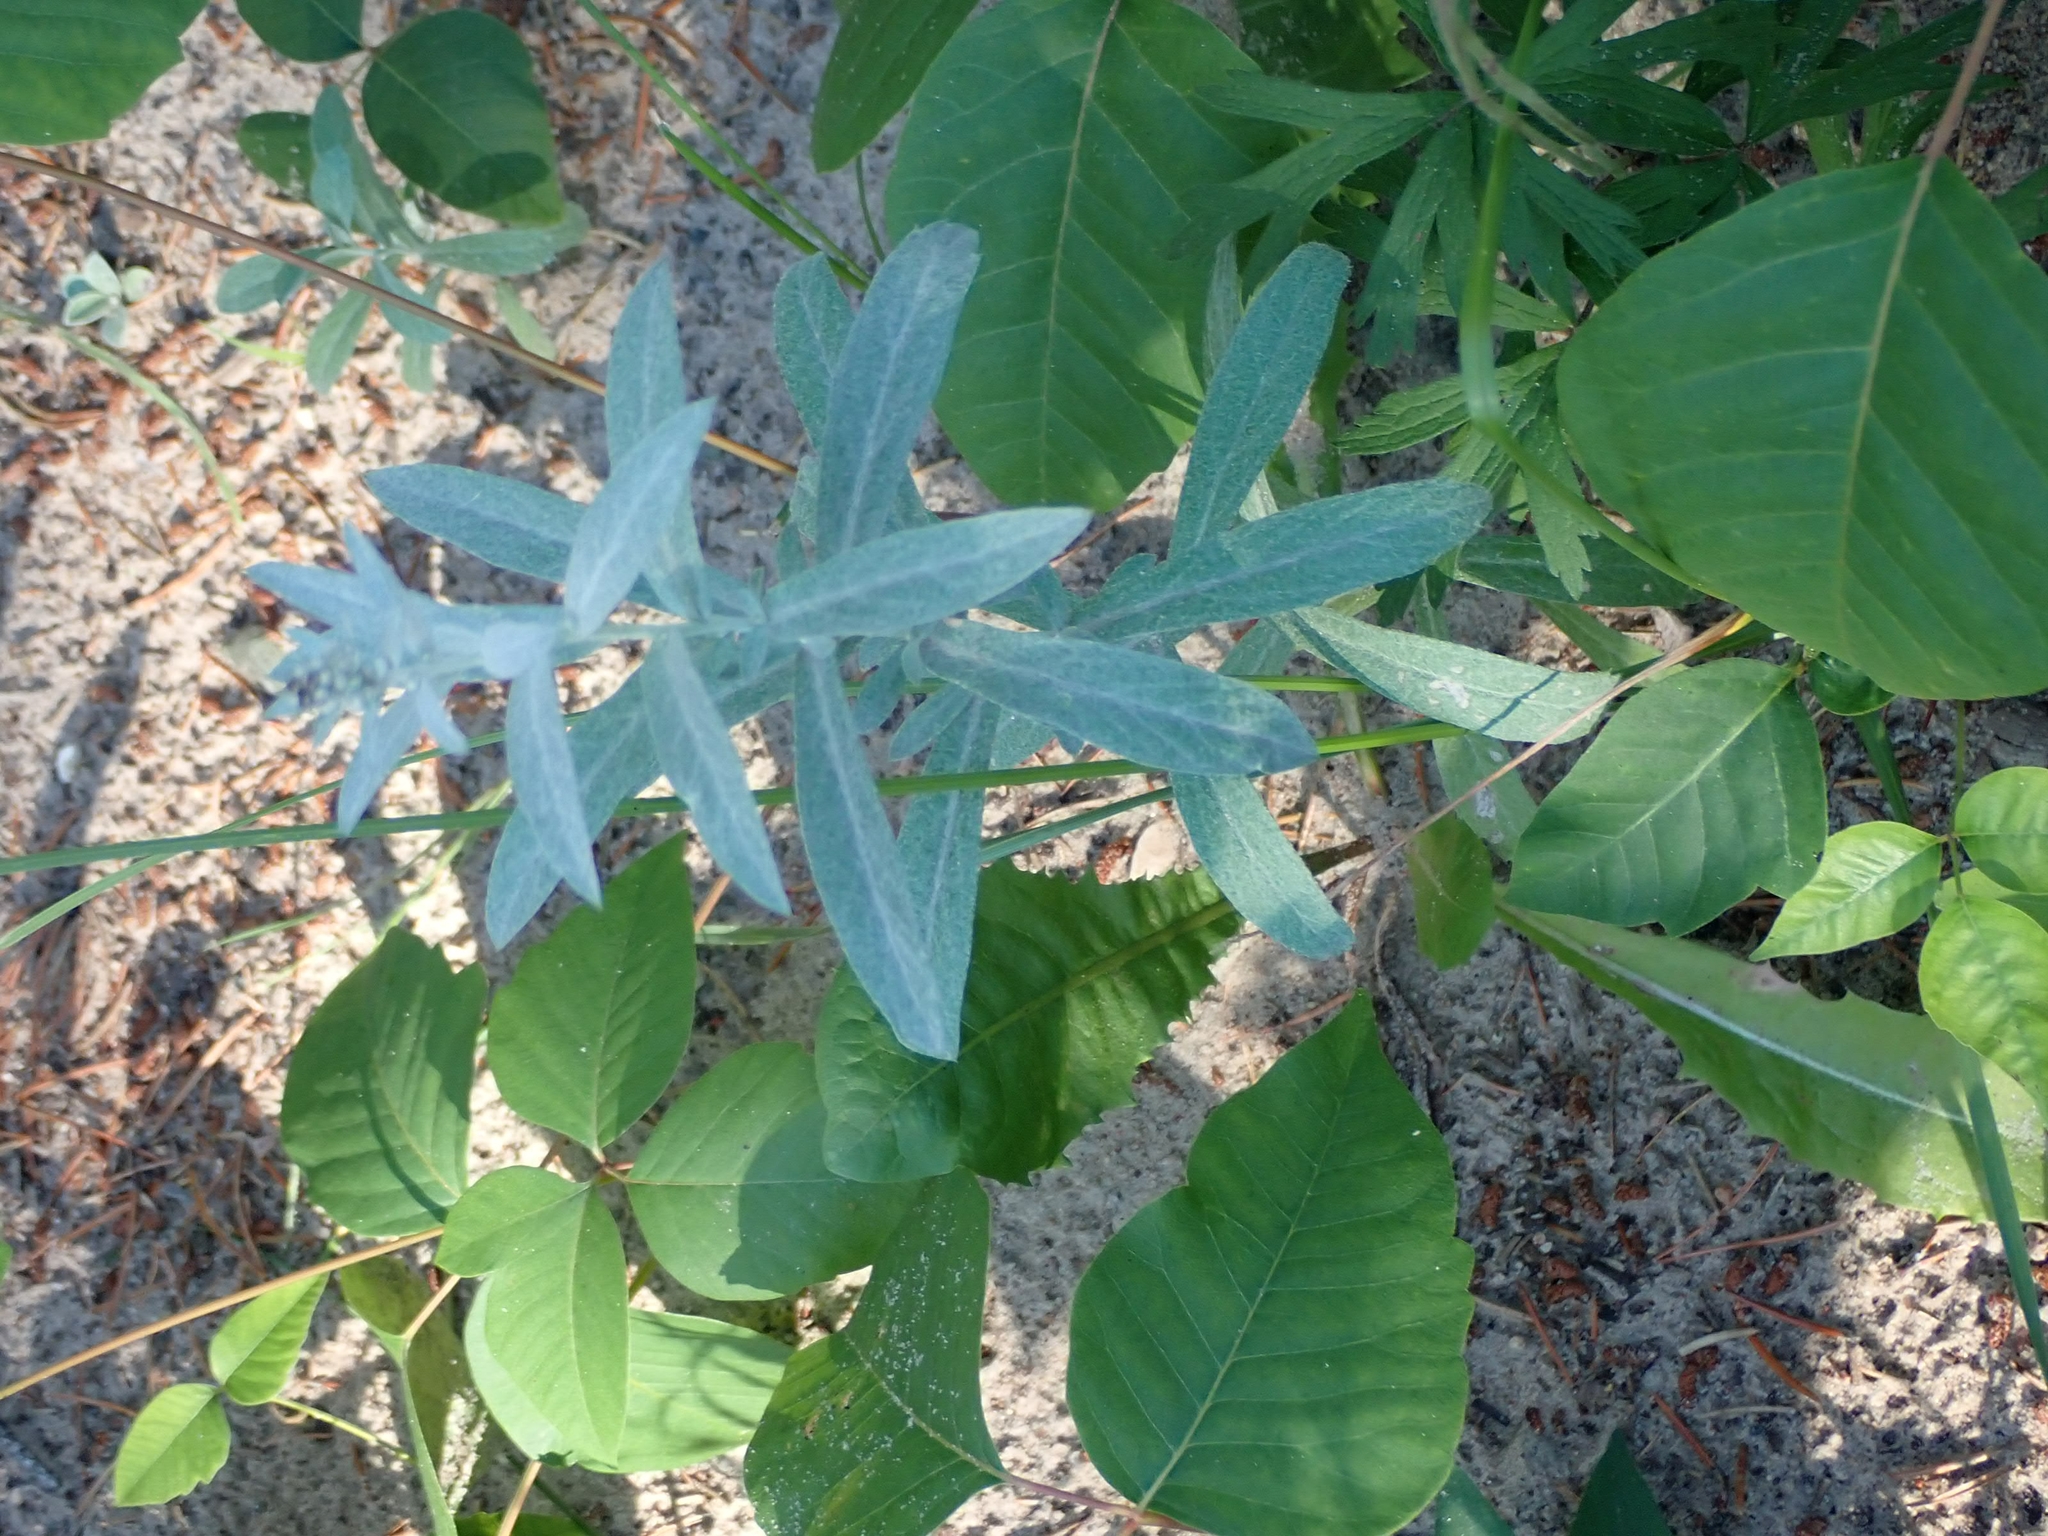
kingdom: Plantae
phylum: Tracheophyta
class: Magnoliopsida
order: Asterales
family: Asteraceae
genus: Artemisia
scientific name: Artemisia ludoviciana
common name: Western mugwort
